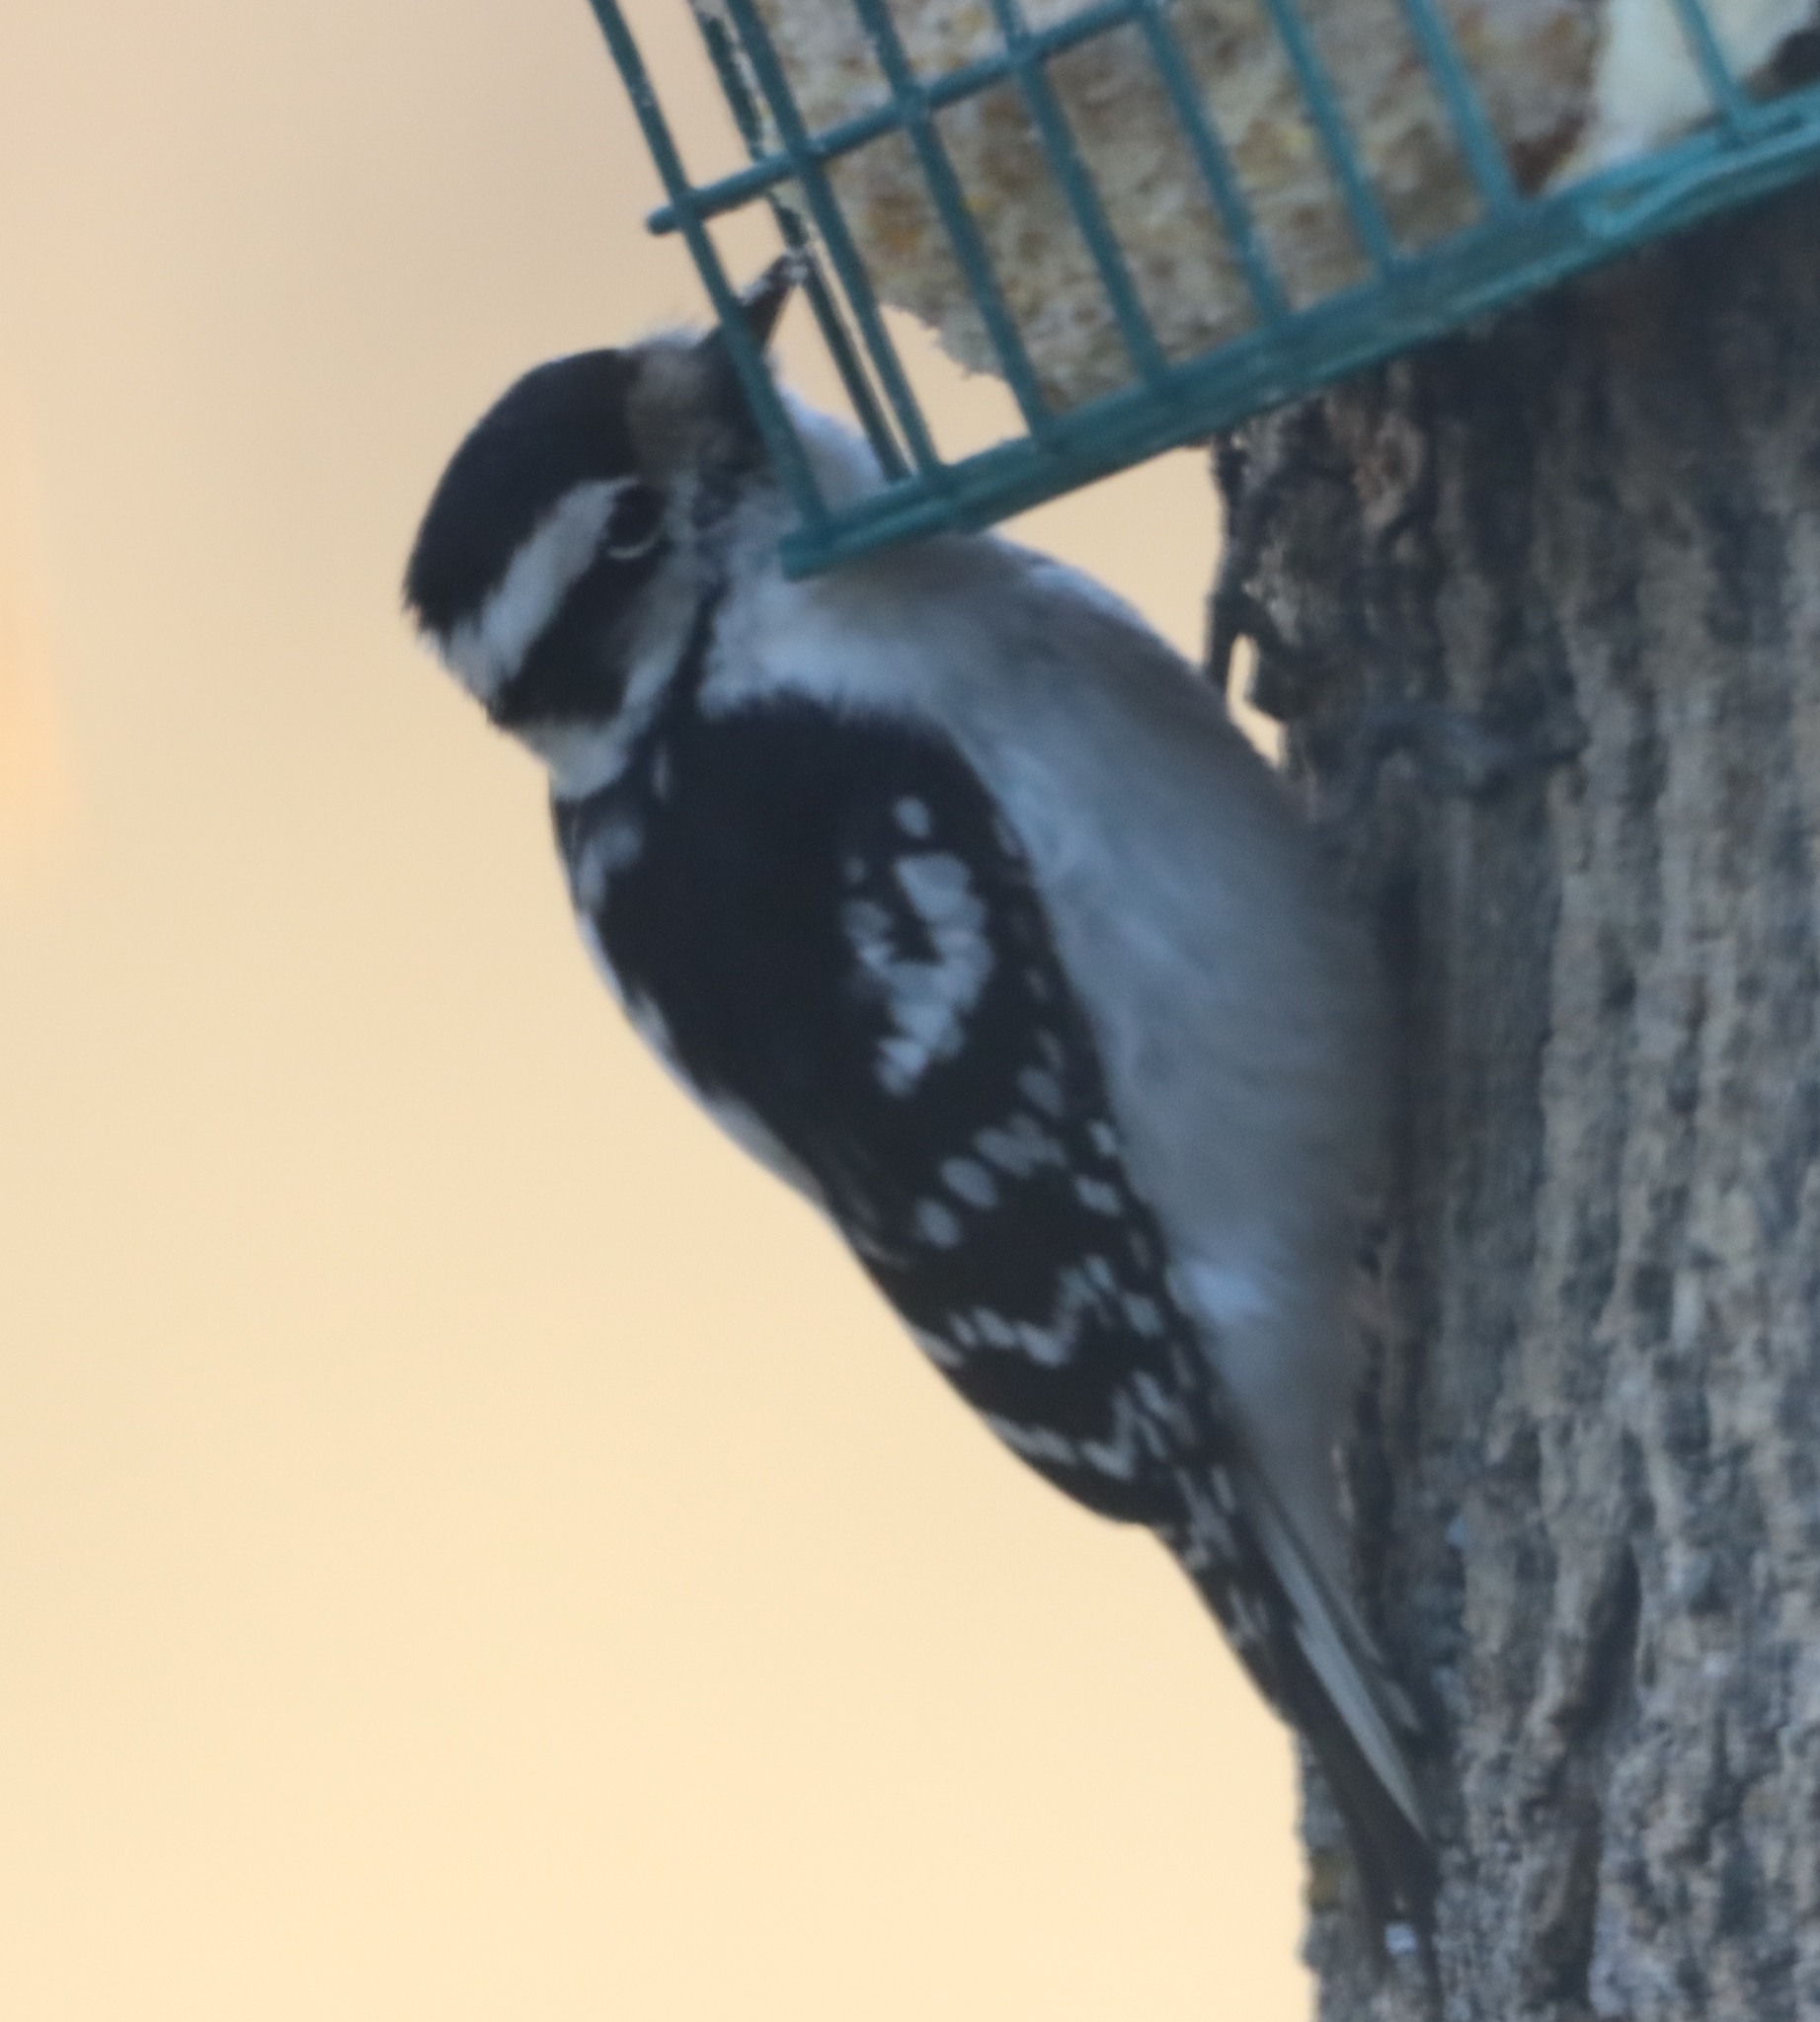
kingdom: Animalia
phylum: Chordata
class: Aves
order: Piciformes
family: Picidae
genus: Dryobates
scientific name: Dryobates pubescens
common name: Downy woodpecker
